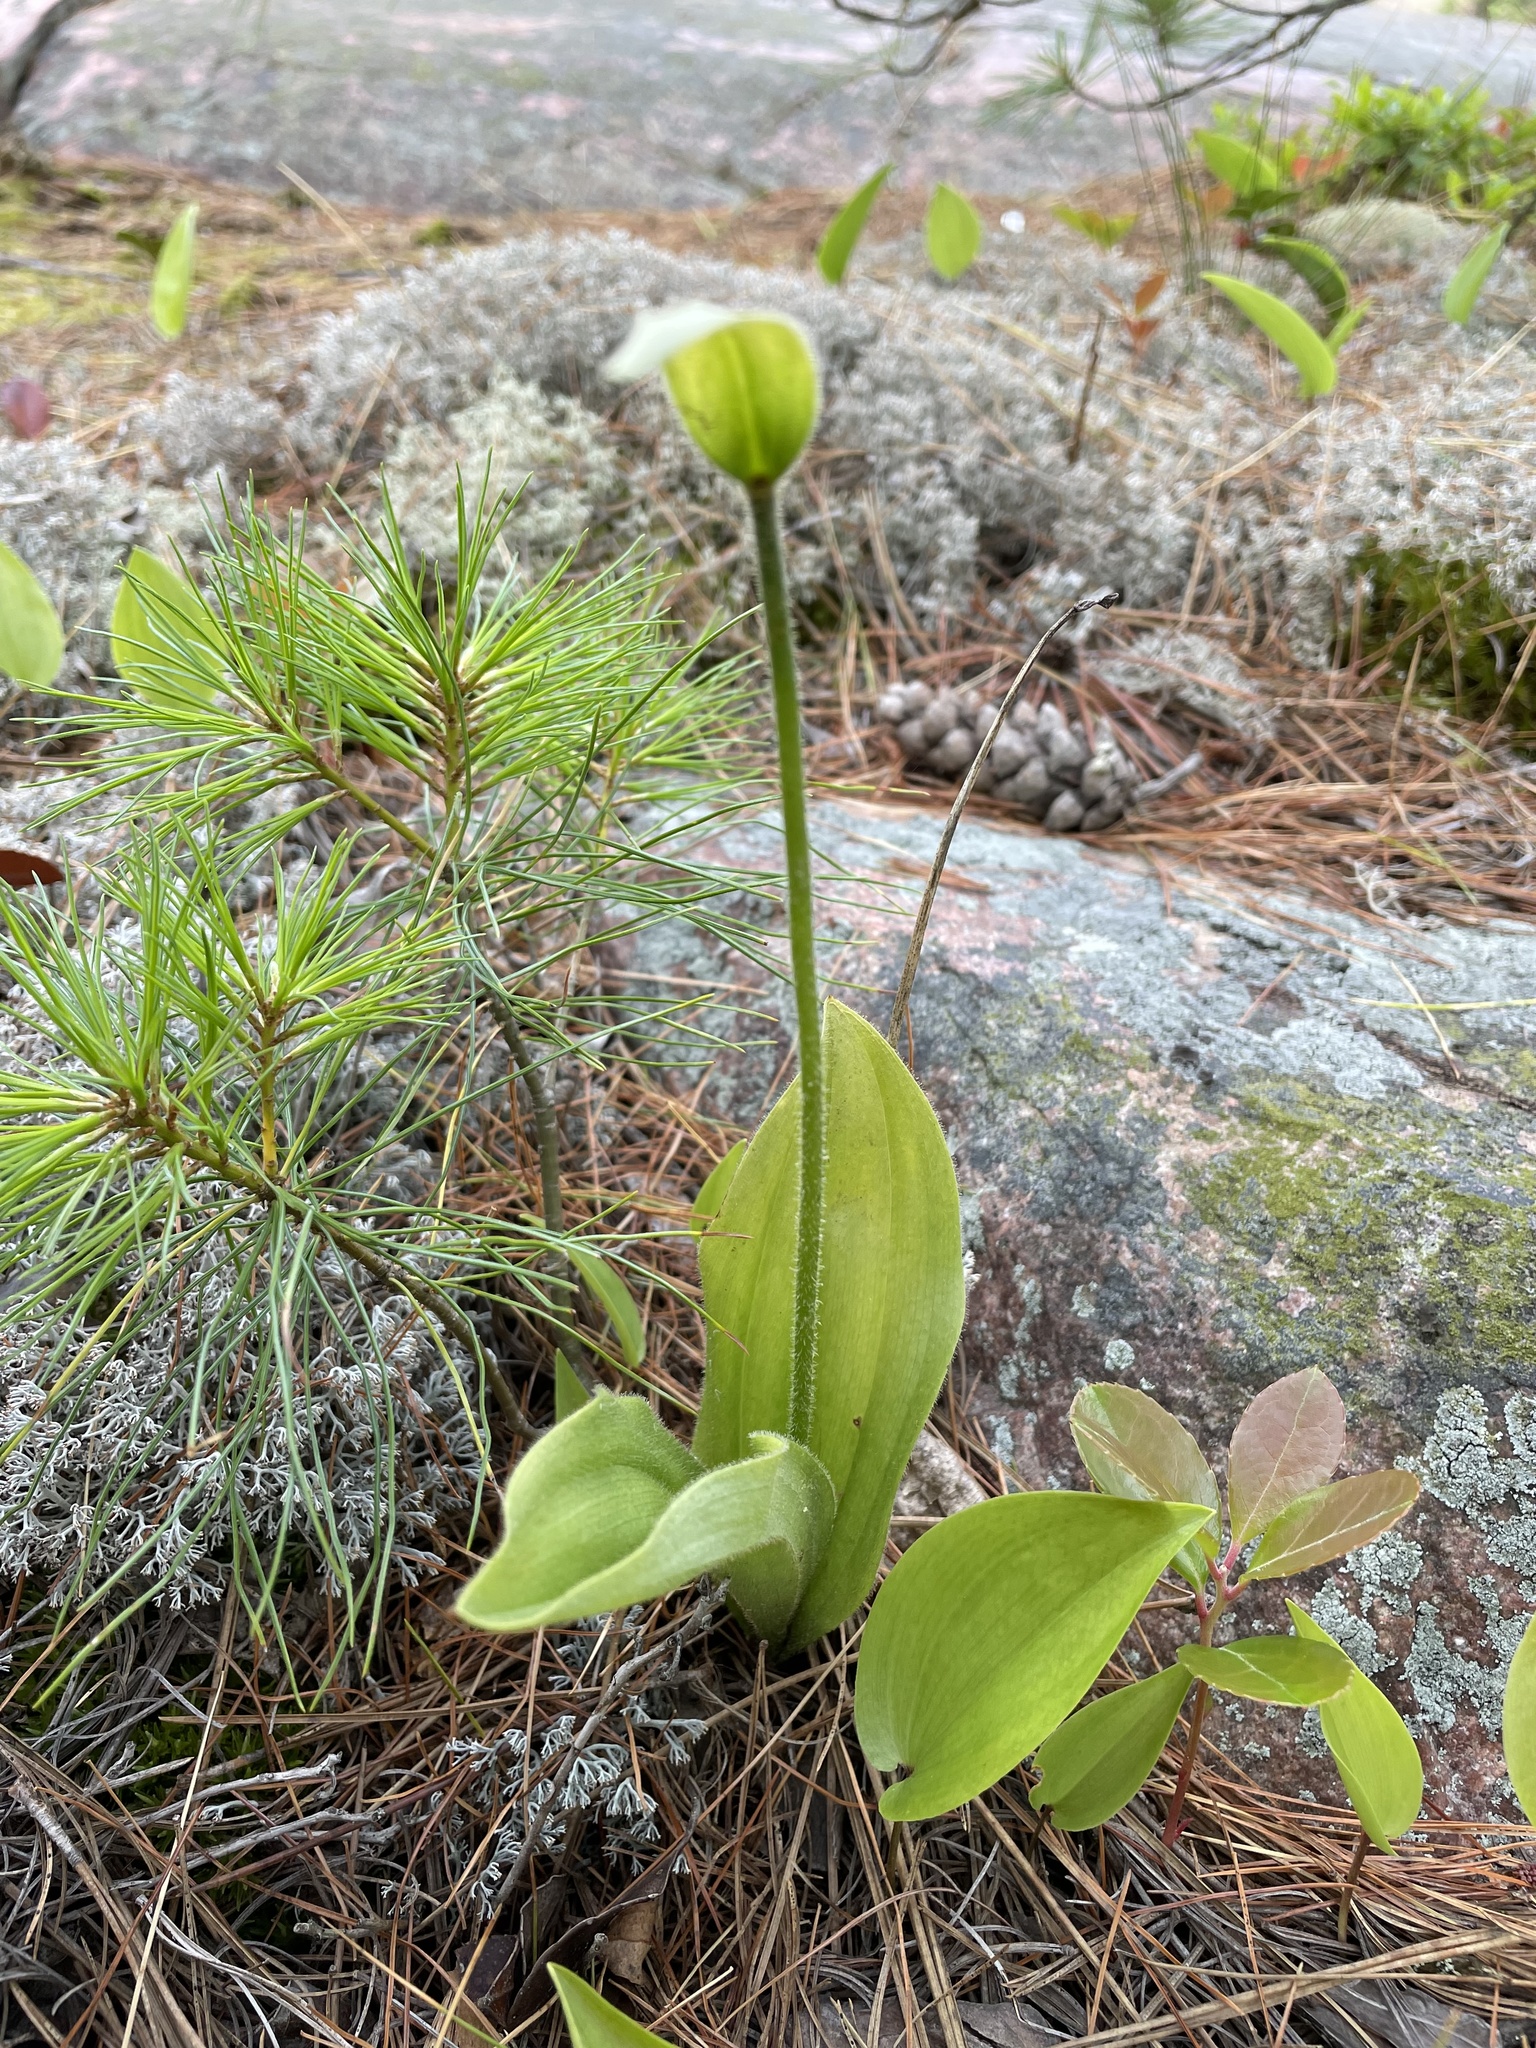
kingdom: Plantae
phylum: Tracheophyta
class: Liliopsida
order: Asparagales
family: Orchidaceae
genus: Cypripedium
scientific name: Cypripedium acaule
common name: Pink lady's-slipper
